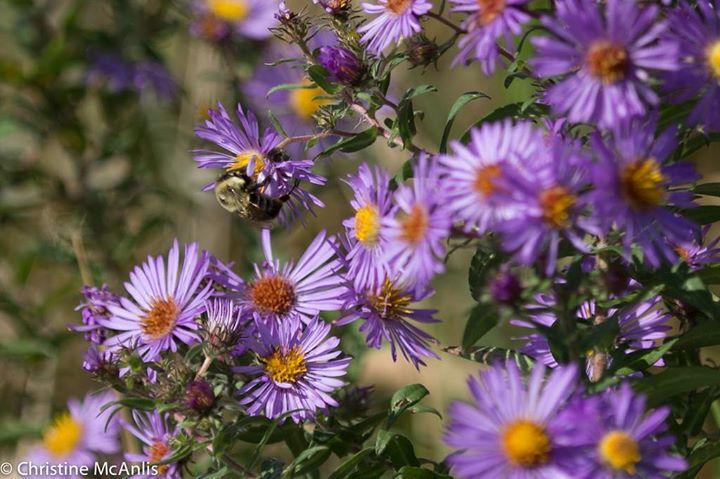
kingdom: Animalia
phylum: Arthropoda
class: Insecta
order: Hymenoptera
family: Apidae
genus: Bombus
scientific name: Bombus impatiens
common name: Common eastern bumble bee
